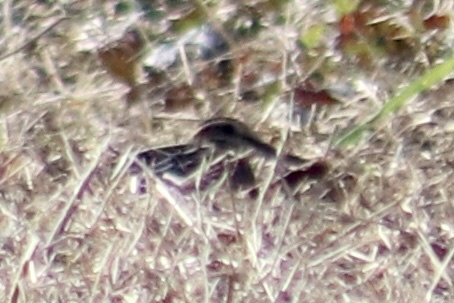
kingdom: Animalia
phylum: Chordata
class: Aves
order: Charadriiformes
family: Scolopacidae
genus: Gallinago
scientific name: Gallinago delicata
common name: Wilson's snipe
